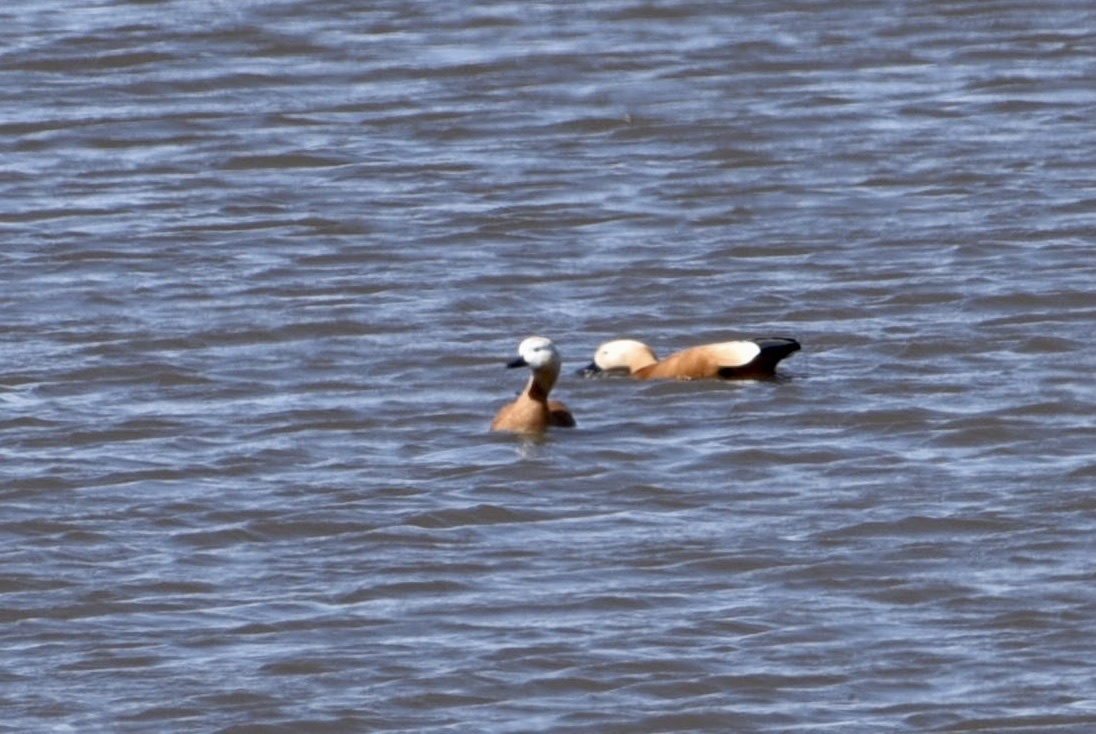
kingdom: Animalia
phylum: Chordata
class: Aves
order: Anseriformes
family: Anatidae
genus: Tadorna
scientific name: Tadorna ferruginea
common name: Ruddy shelduck
